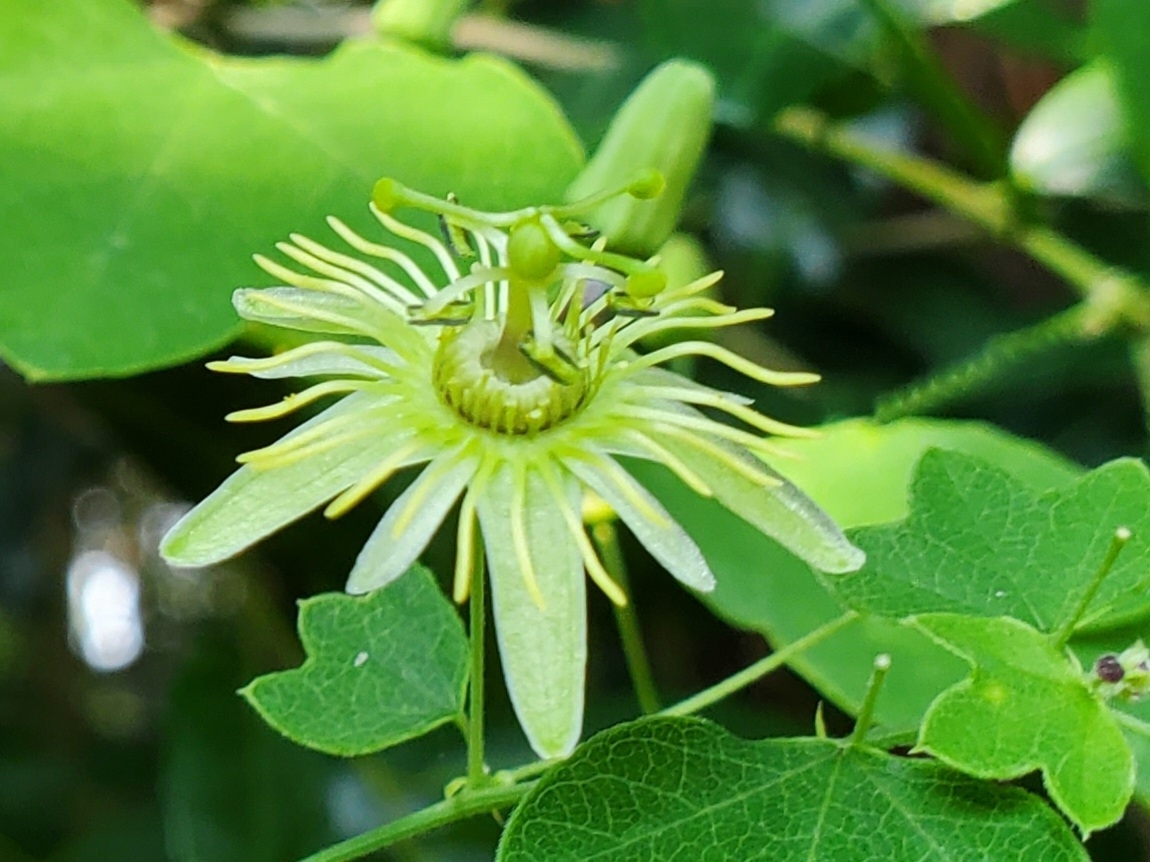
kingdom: Plantae
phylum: Tracheophyta
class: Magnoliopsida
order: Malpighiales
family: Passifloraceae
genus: Passiflora
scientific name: Passiflora lutea
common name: Yellow passionflower
